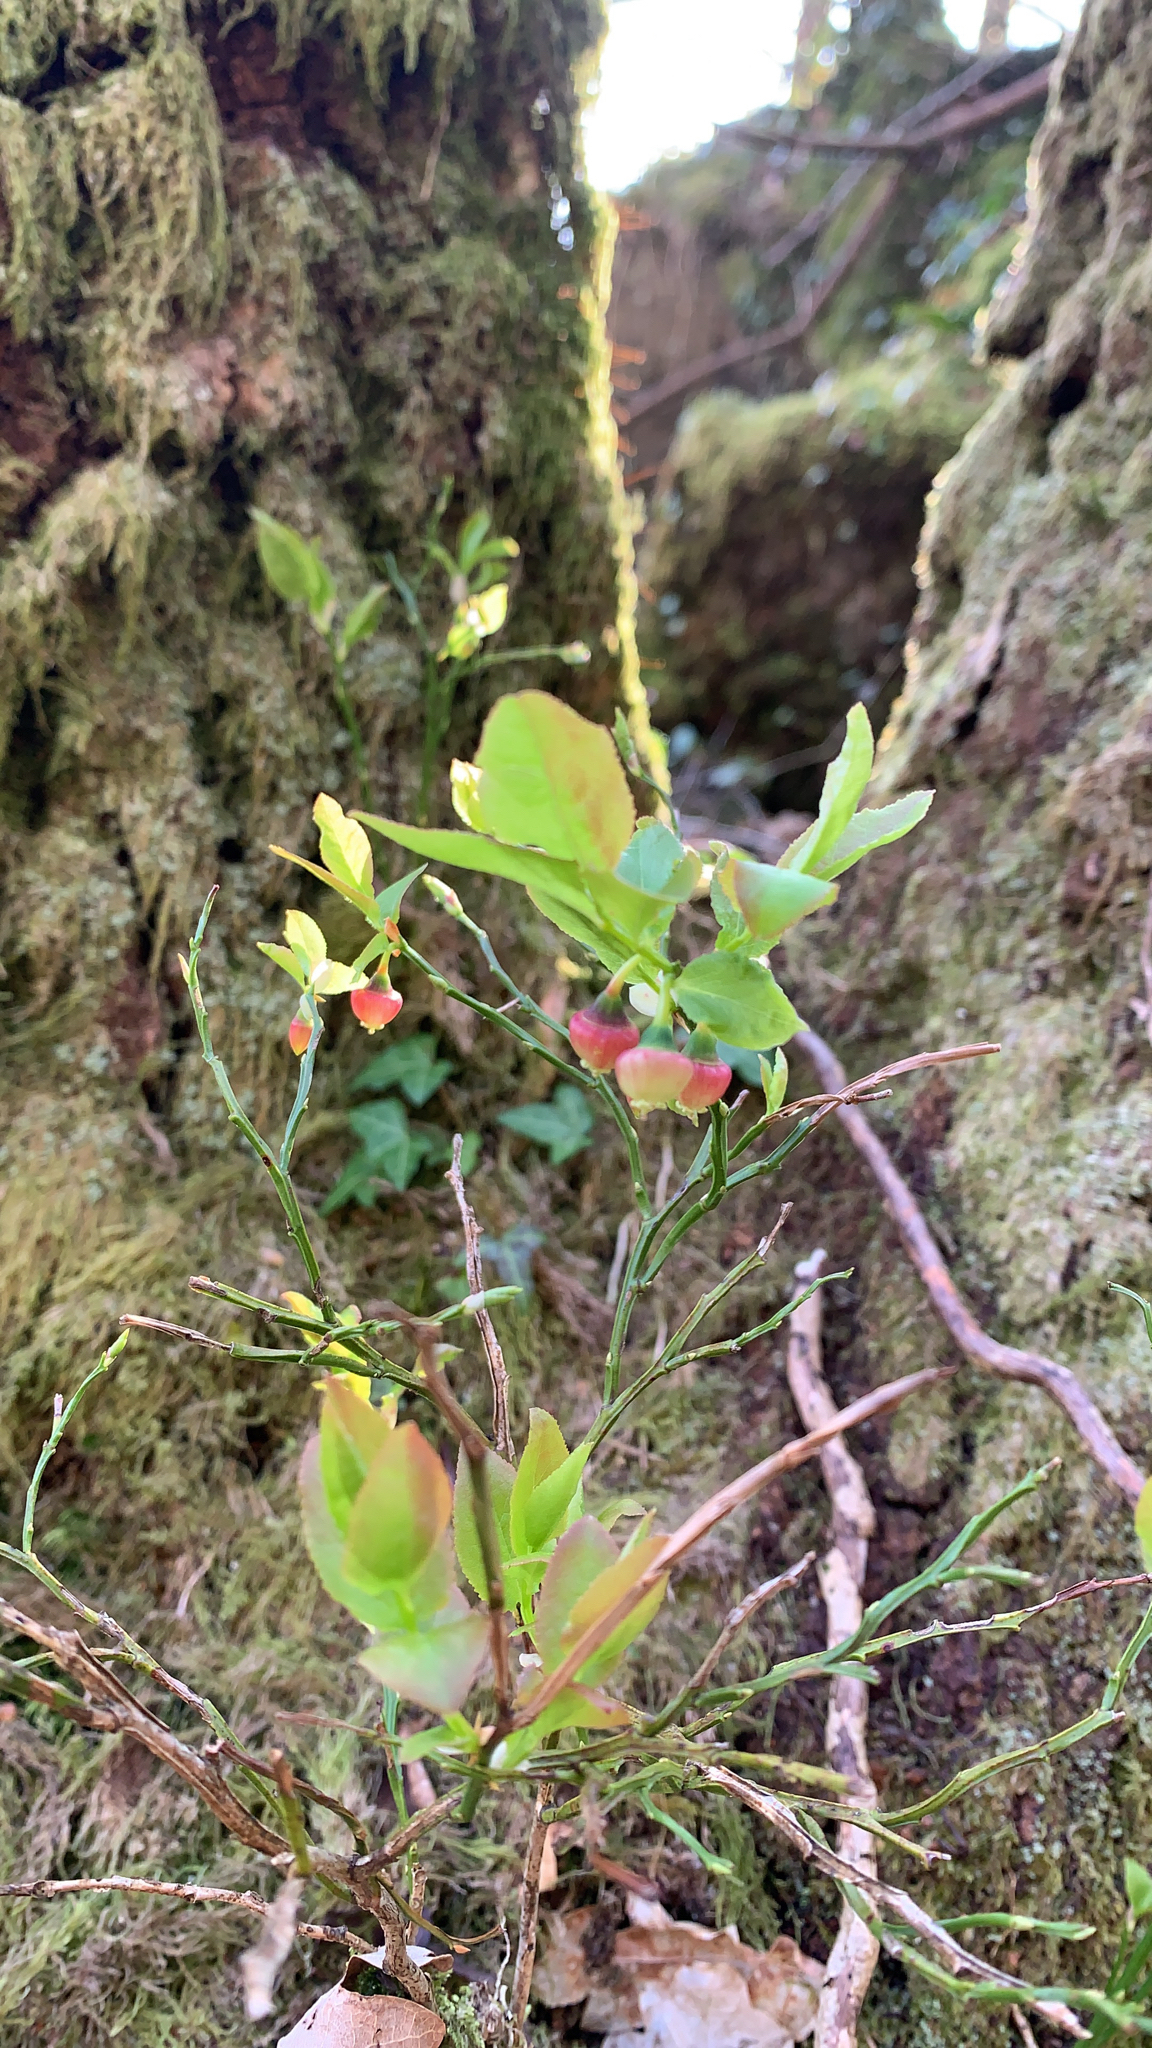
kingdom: Plantae
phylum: Tracheophyta
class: Magnoliopsida
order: Ericales
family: Ericaceae
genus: Vaccinium
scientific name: Vaccinium myrtillus
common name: Bilberry
